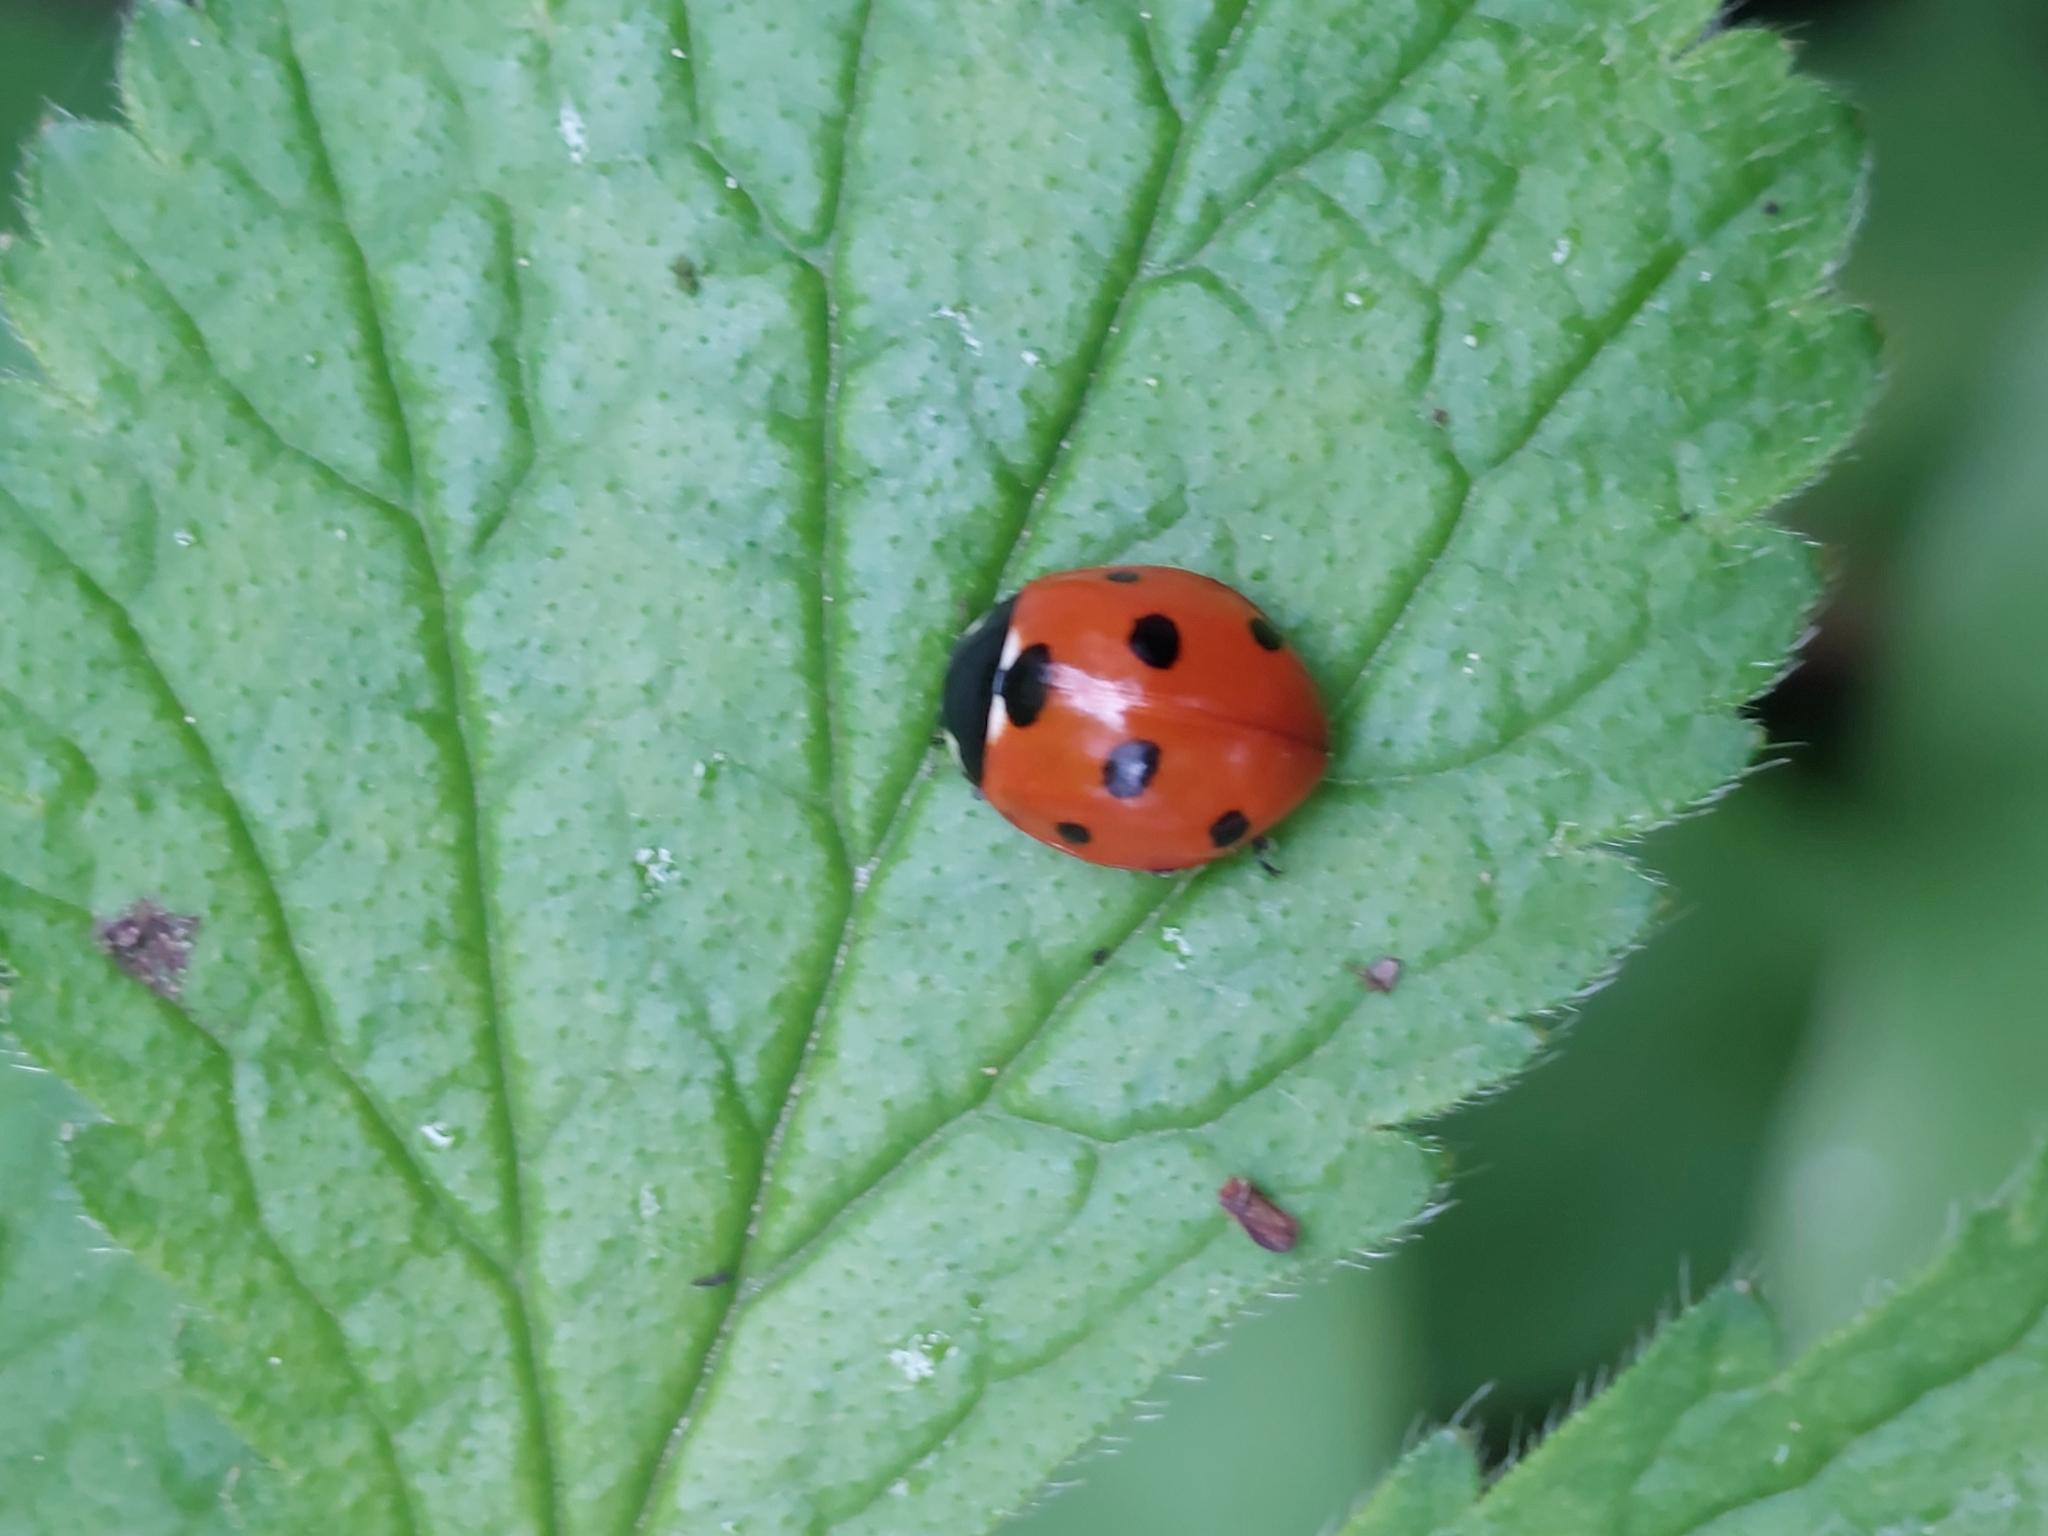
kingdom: Animalia
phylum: Arthropoda
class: Insecta
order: Coleoptera
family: Coccinellidae
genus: Coccinella
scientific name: Coccinella septempunctata
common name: Sevenspotted lady beetle
